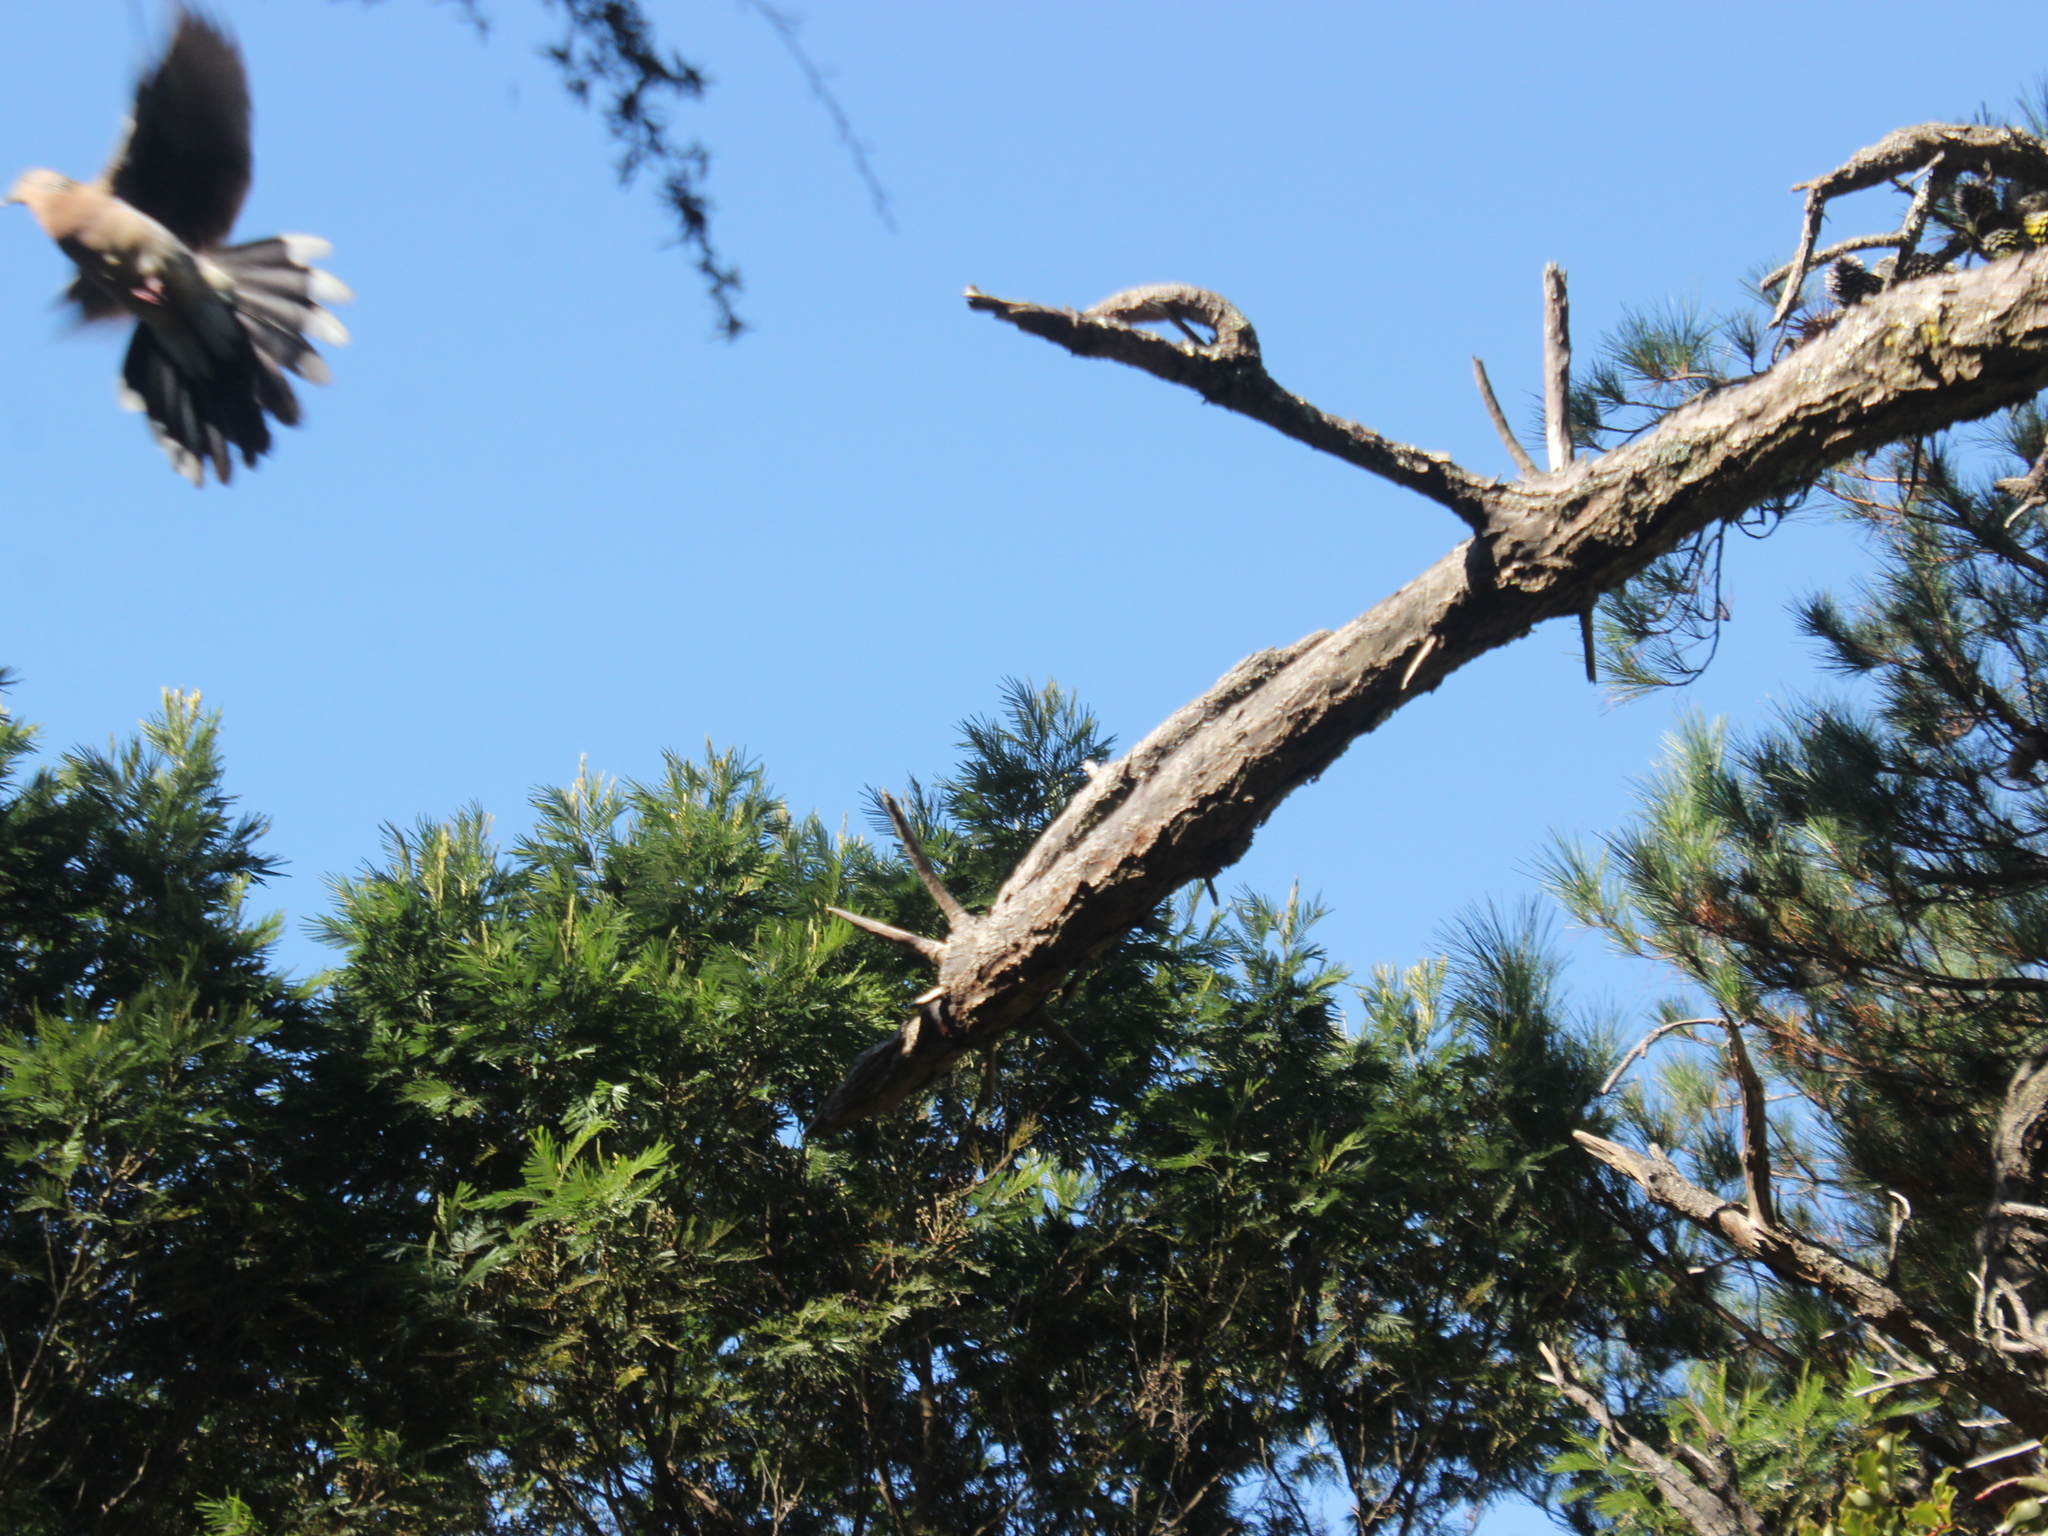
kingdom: Animalia
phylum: Chordata
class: Aves
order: Columbiformes
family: Columbidae
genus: Spilopelia
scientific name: Spilopelia chinensis
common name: Spotted dove
